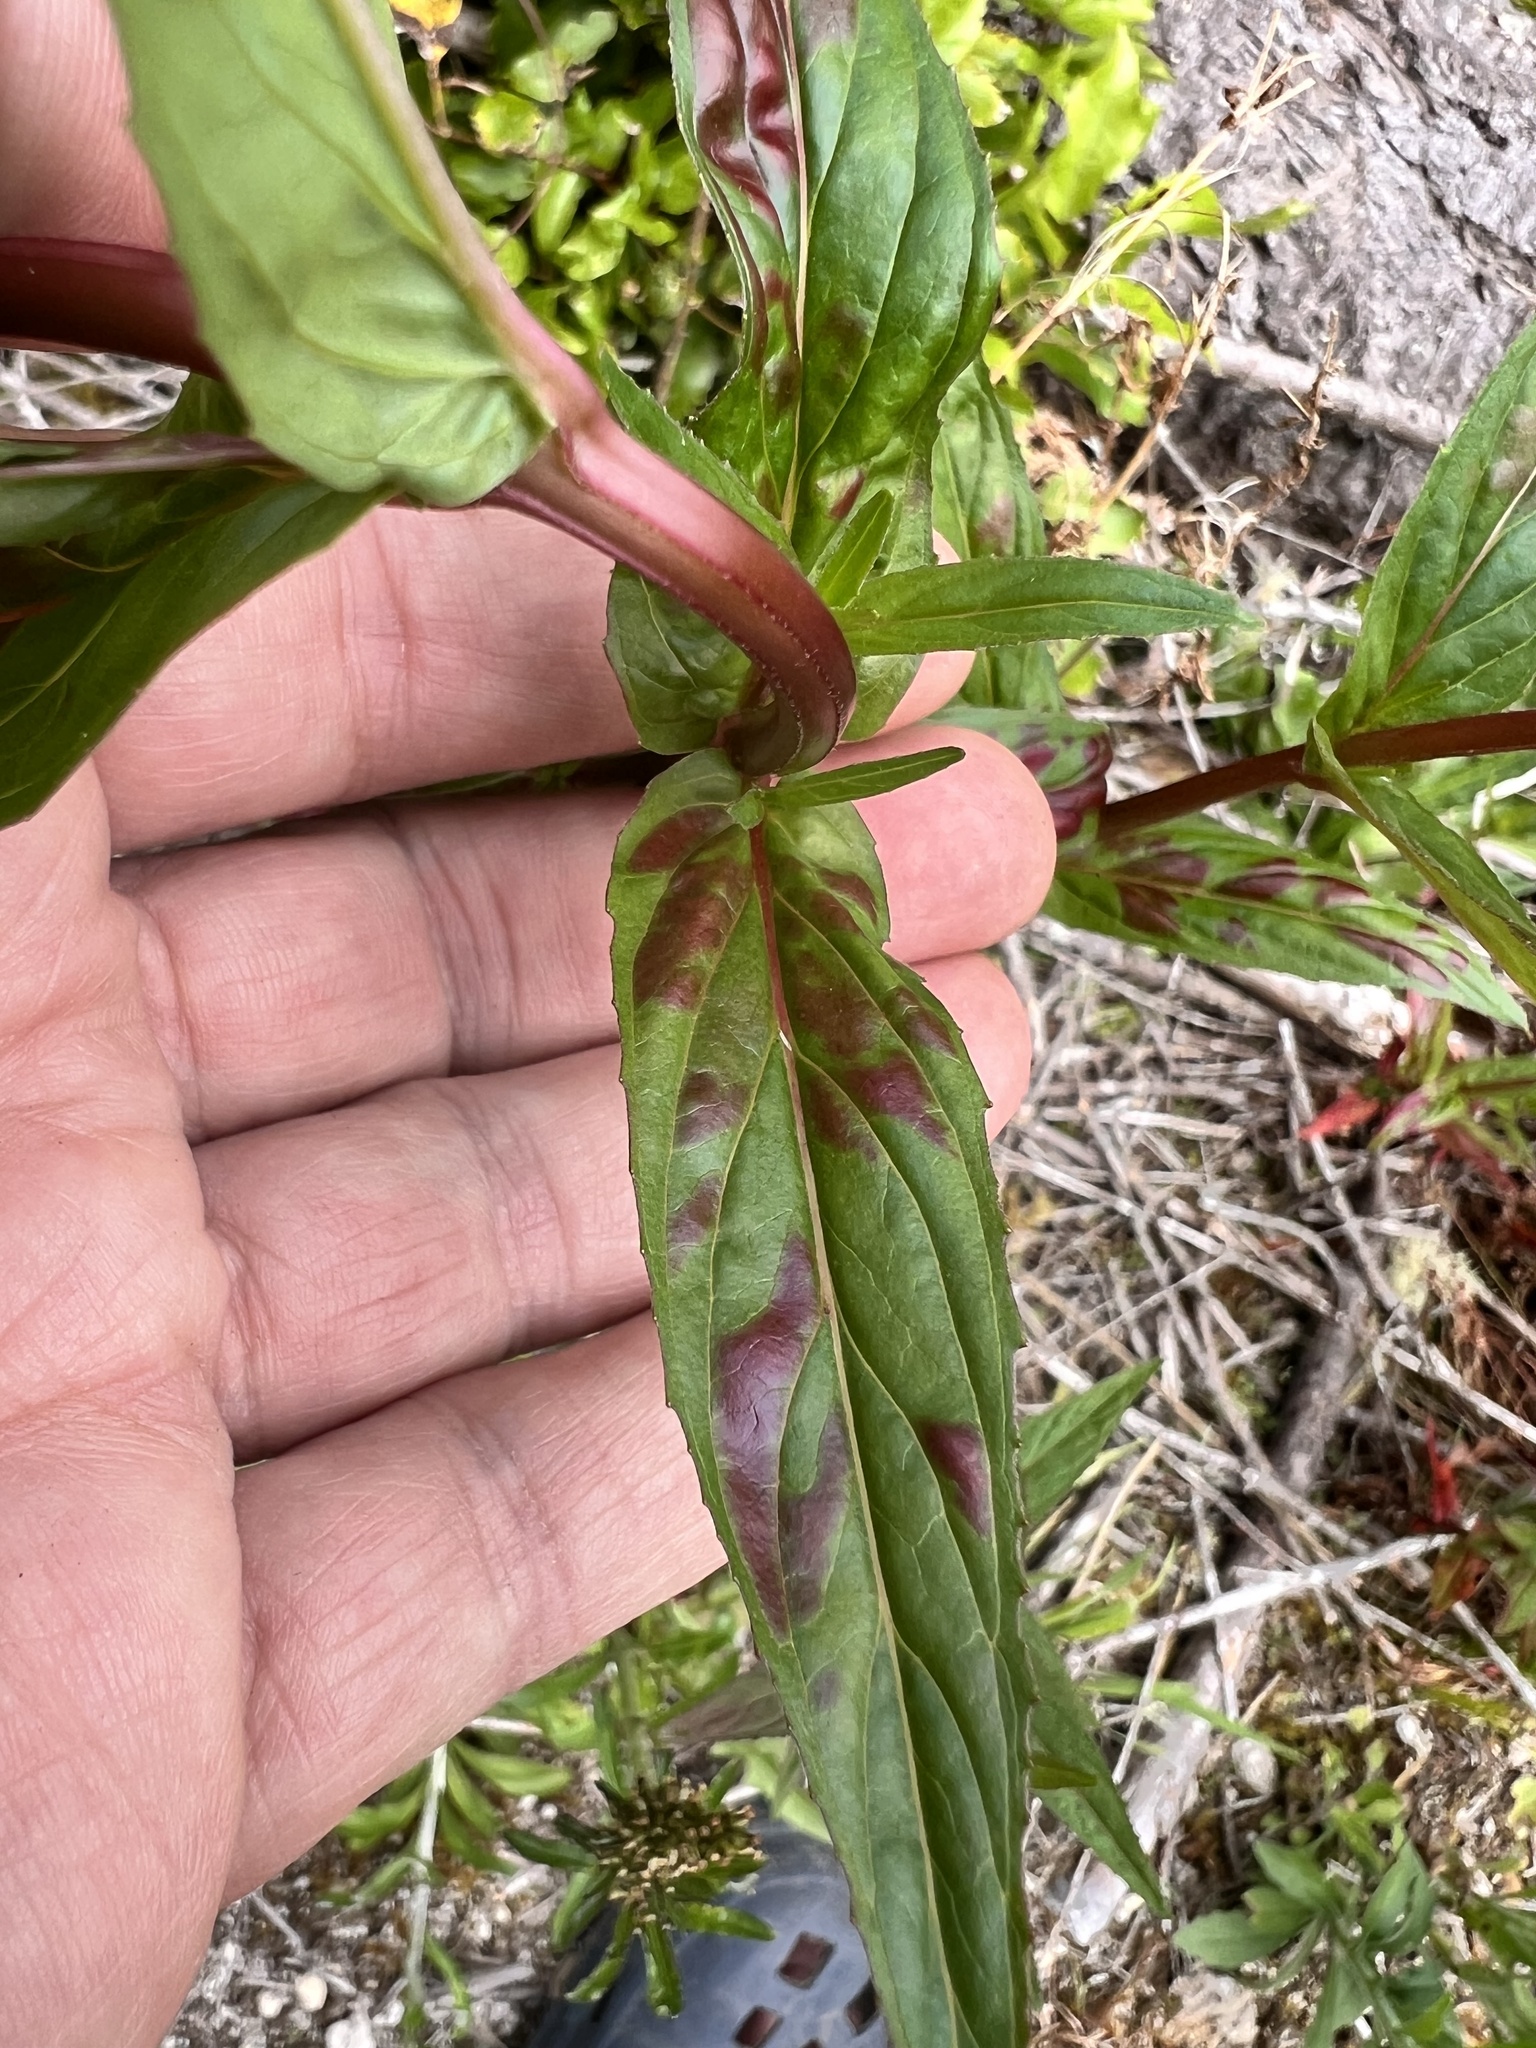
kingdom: Plantae
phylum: Tracheophyta
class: Magnoliopsida
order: Myrtales
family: Onagraceae
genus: Epilobium
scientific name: Epilobium ciliatum
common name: American willowherb
